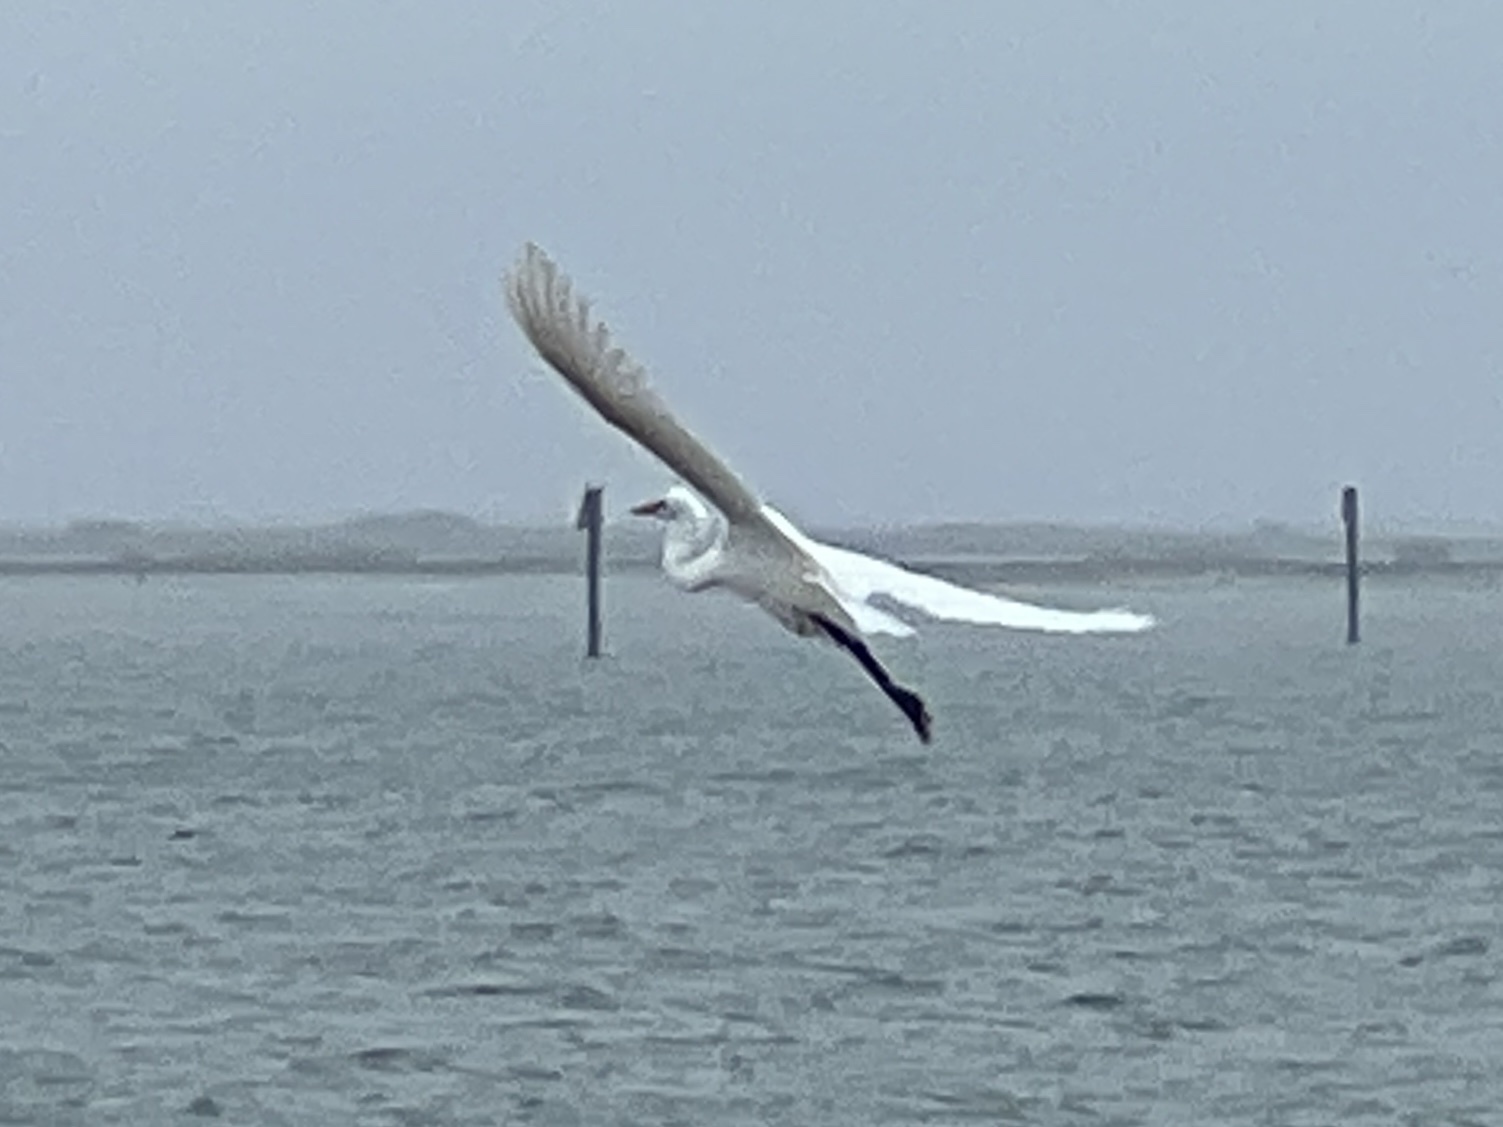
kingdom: Animalia
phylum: Chordata
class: Aves
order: Pelecaniformes
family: Ardeidae
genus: Ardea
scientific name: Ardea alba
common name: Great egret
